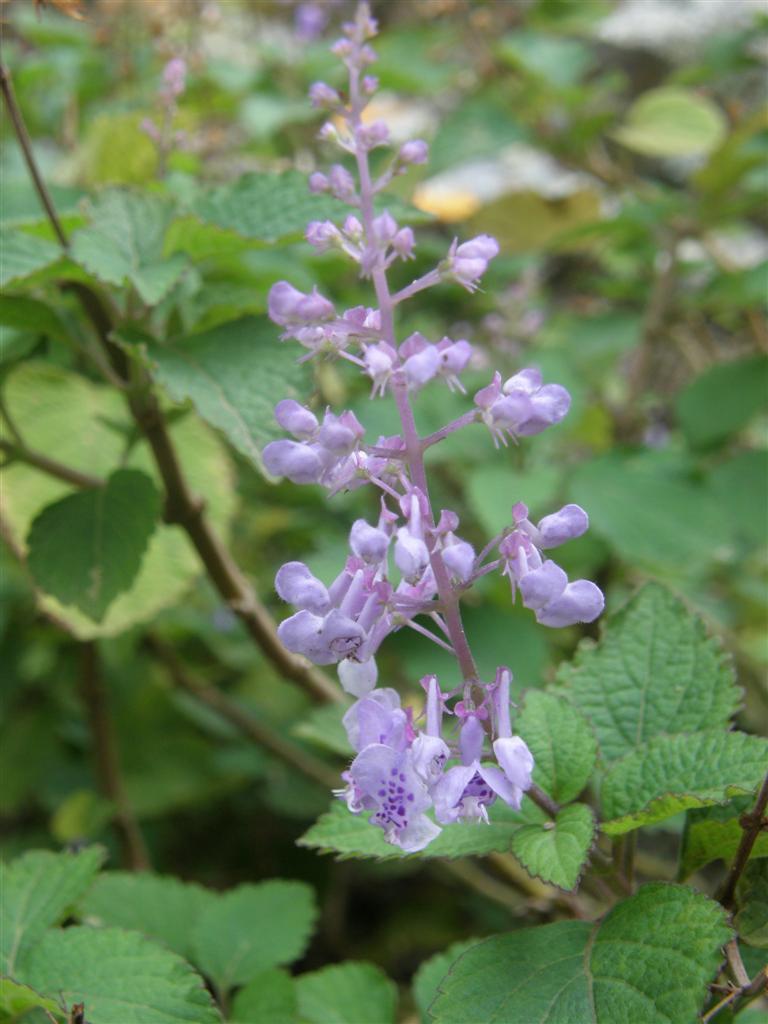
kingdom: Plantae
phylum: Tracheophyta
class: Magnoliopsida
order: Lamiales
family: Lamiaceae
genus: Plectranthus
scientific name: Plectranthus fruticosus
